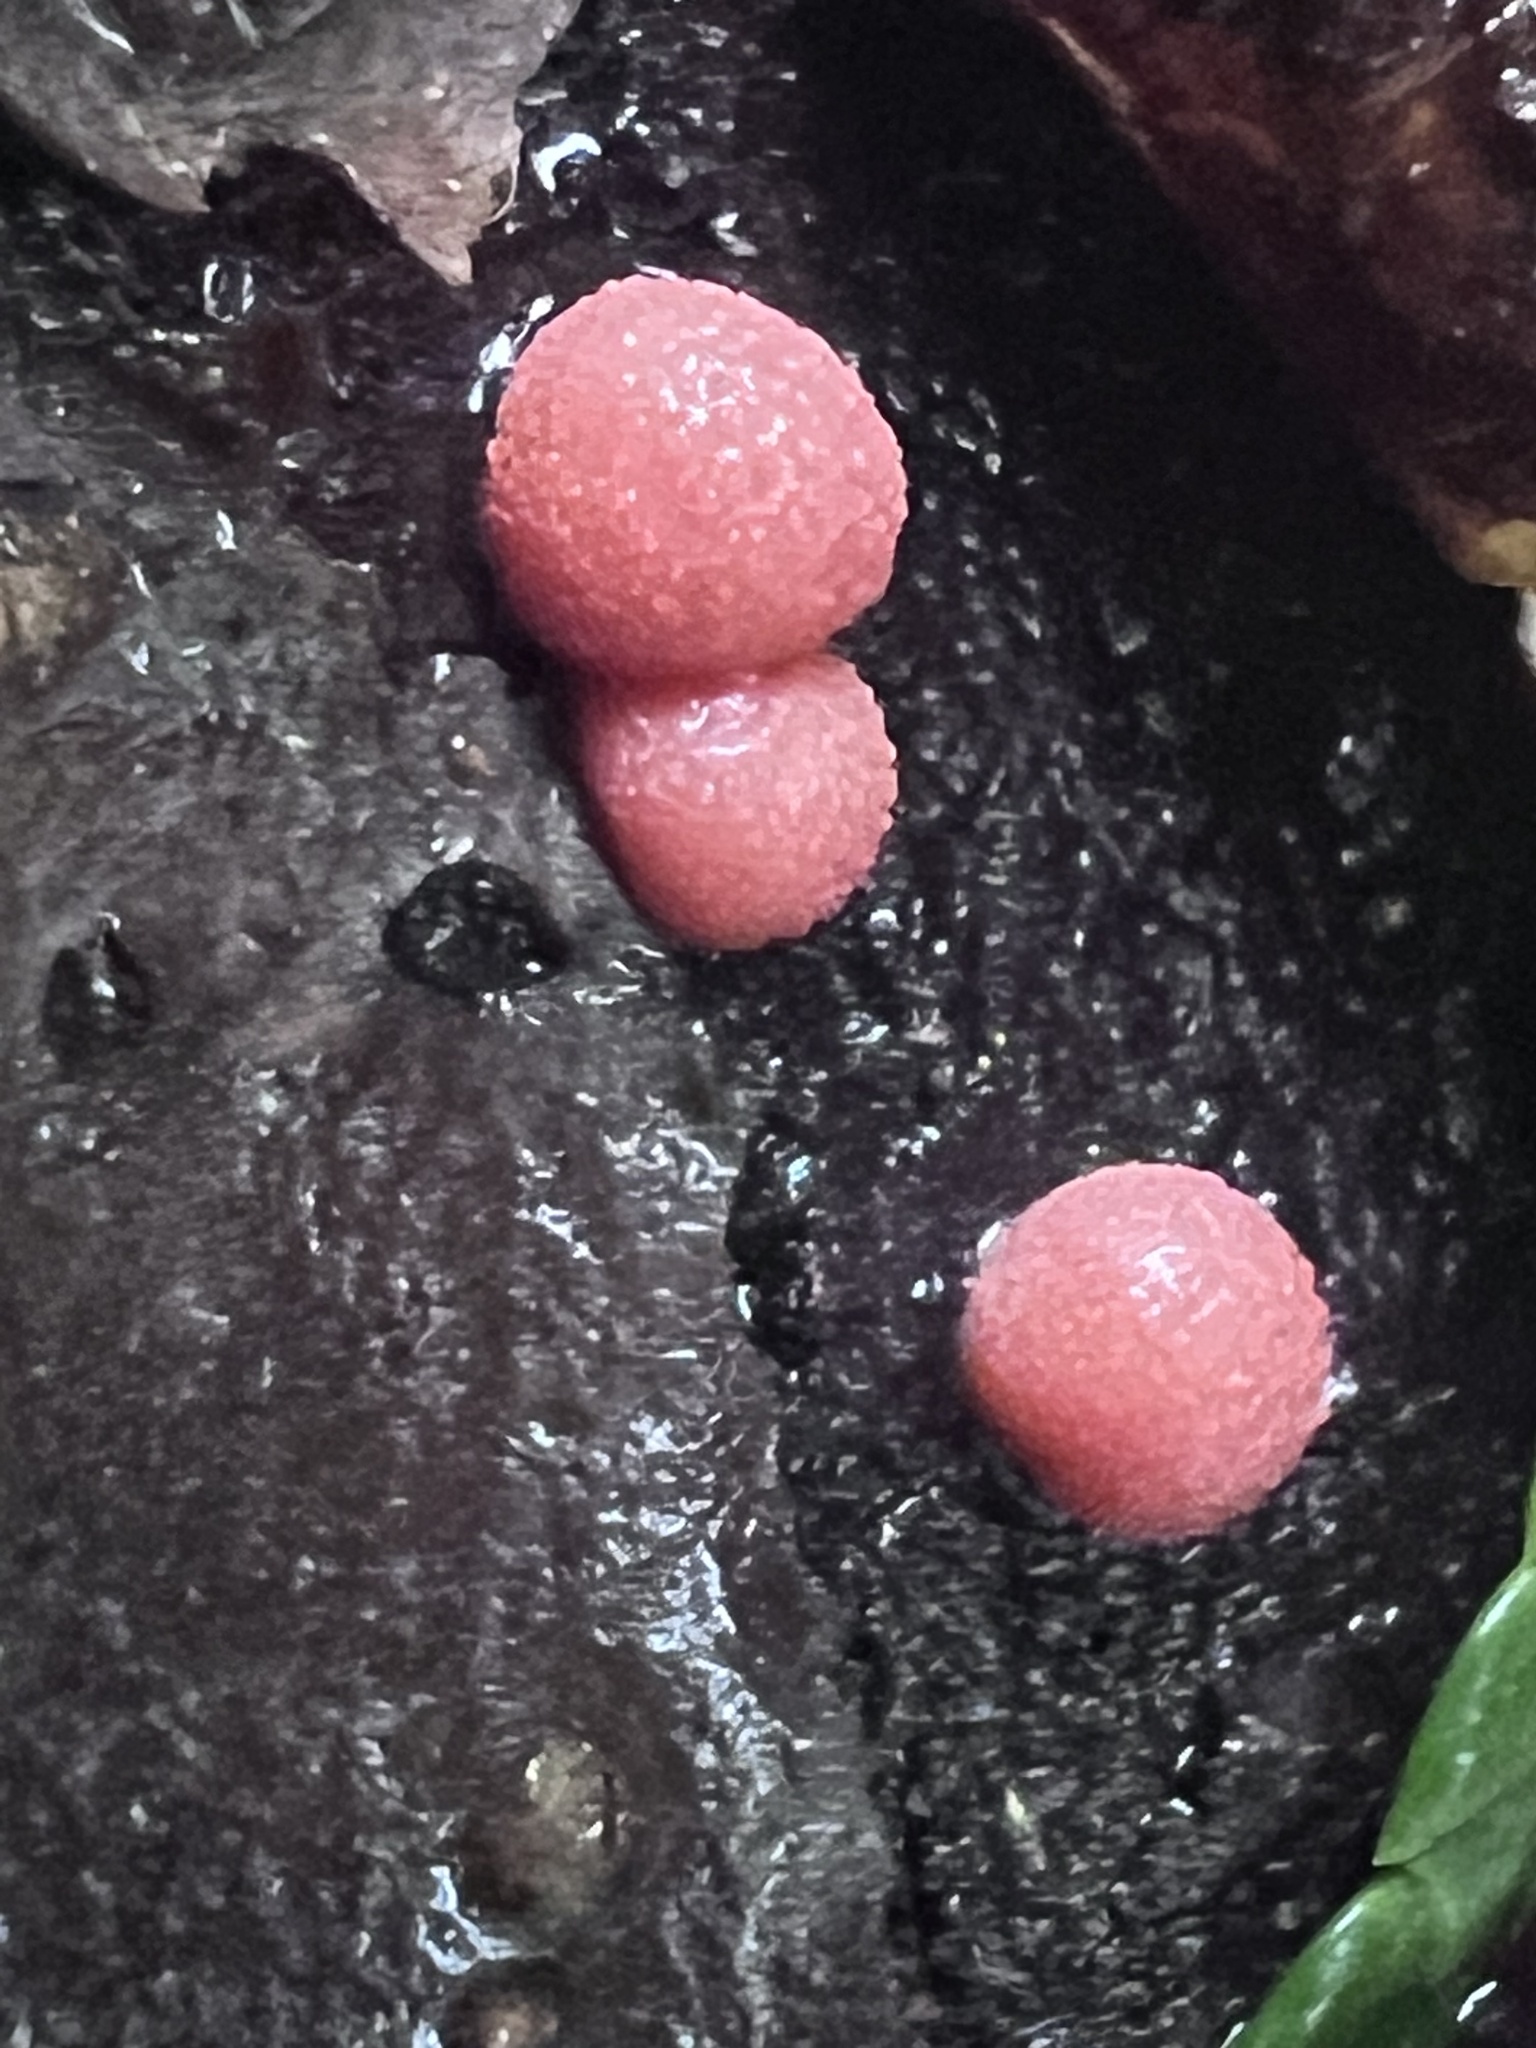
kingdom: Protozoa
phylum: Mycetozoa
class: Myxomycetes
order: Cribrariales
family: Tubiferaceae
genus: Lycogala
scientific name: Lycogala epidendrum
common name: Wolf's milk
